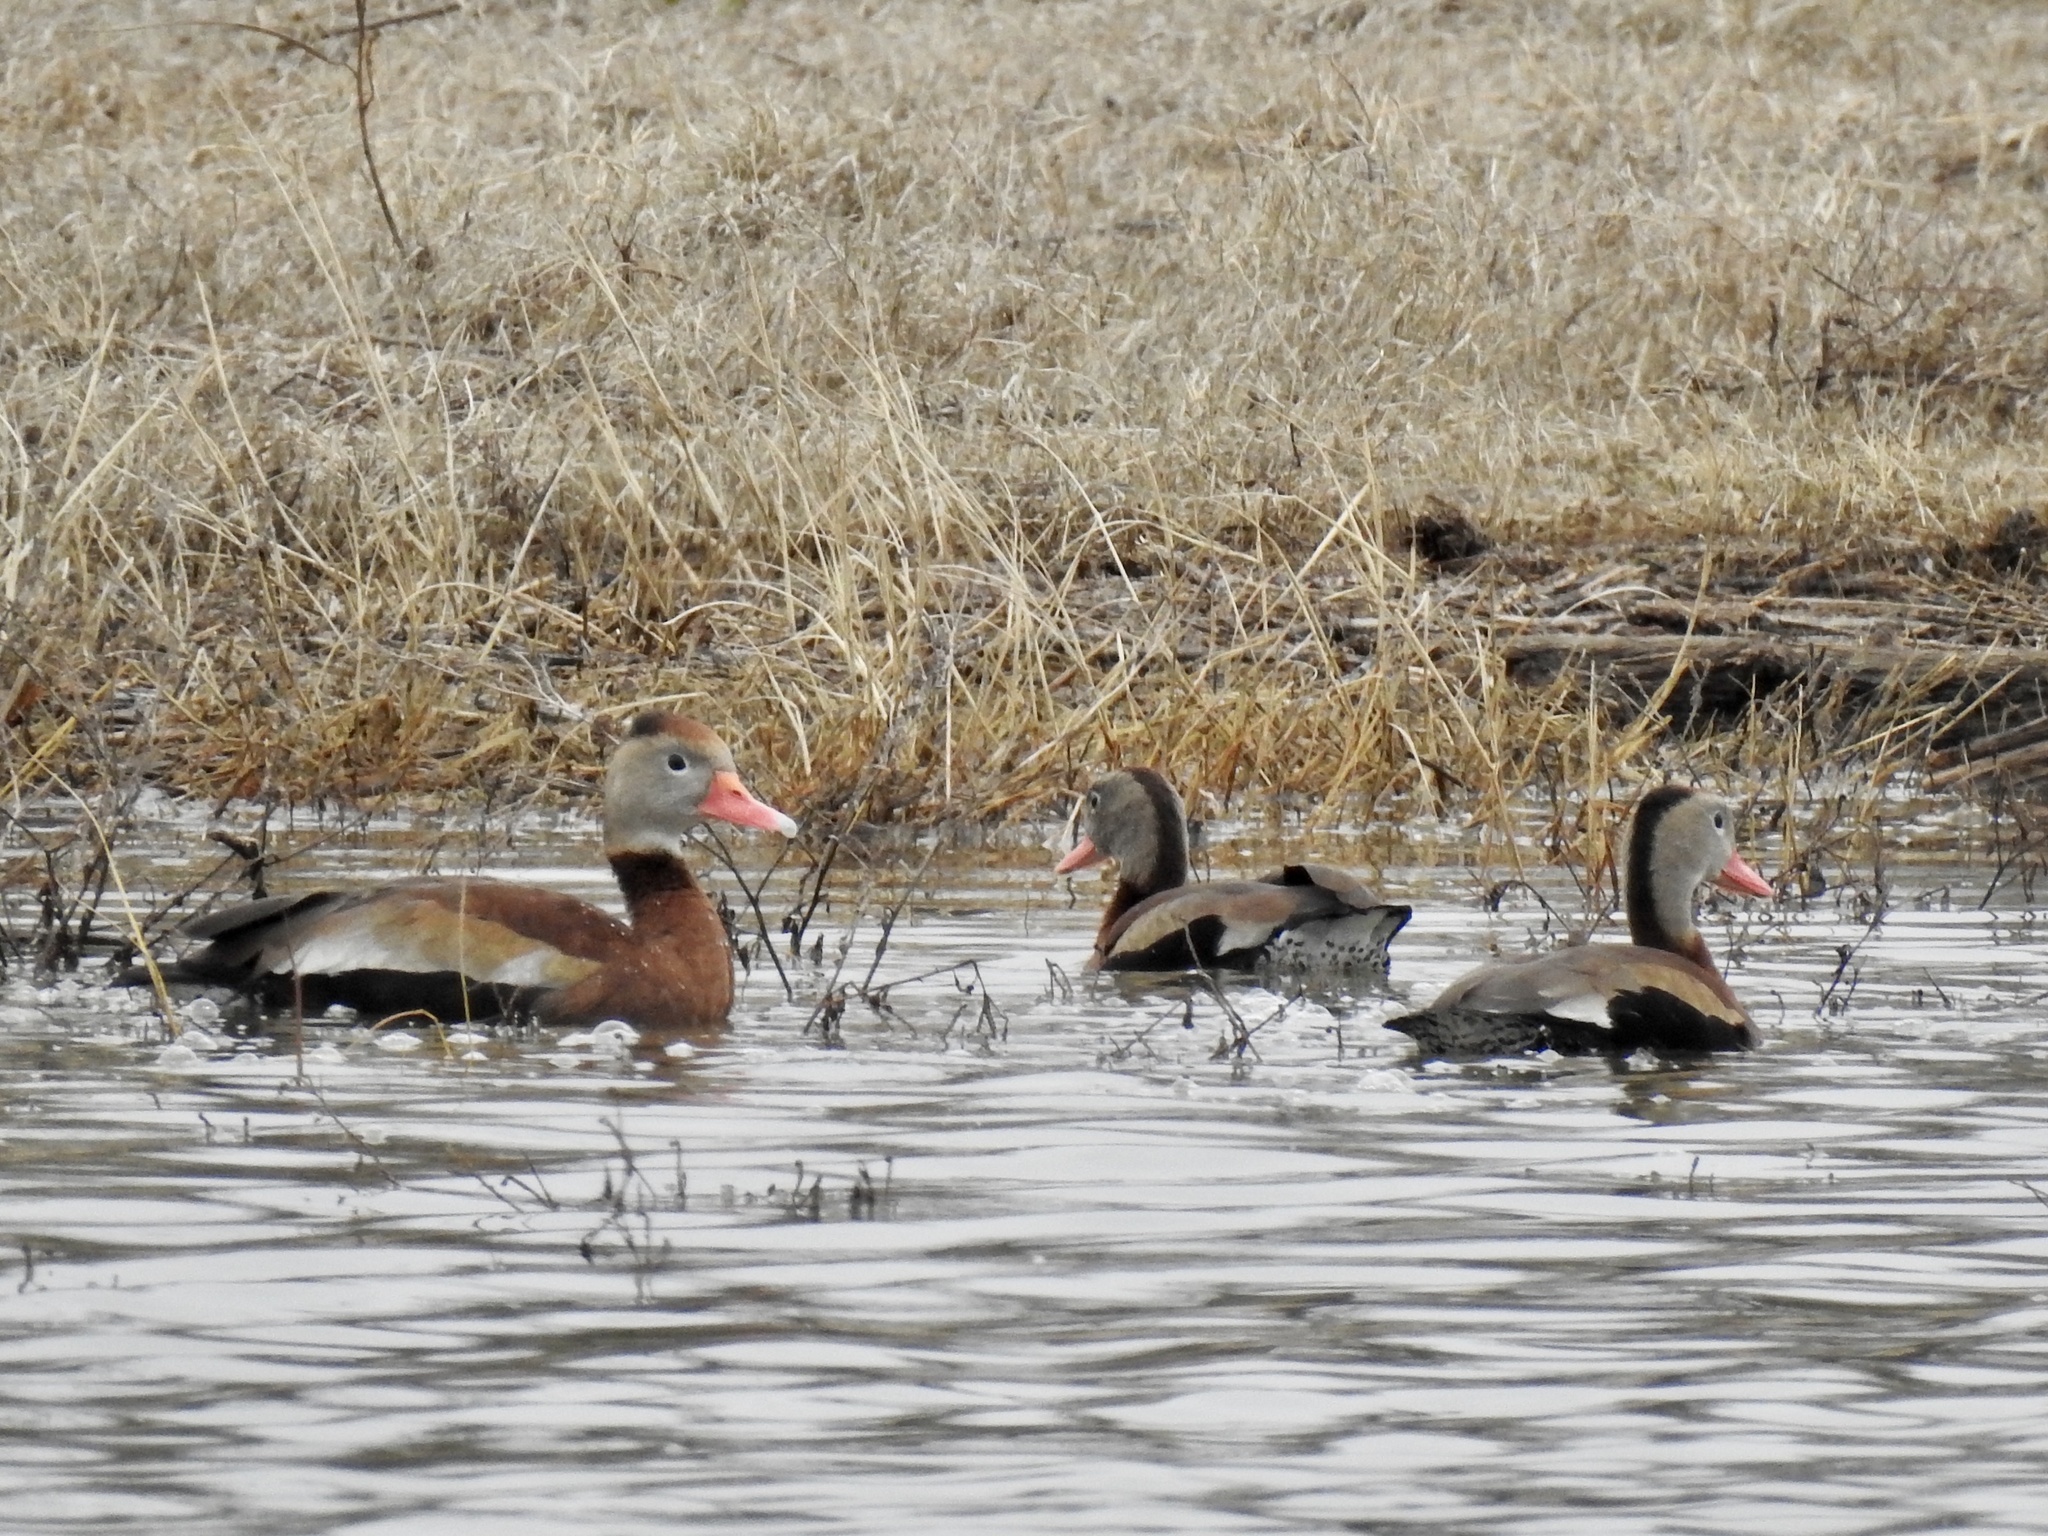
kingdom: Animalia
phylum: Chordata
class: Aves
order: Anseriformes
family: Anatidae
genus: Dendrocygna
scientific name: Dendrocygna autumnalis
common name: Black-bellied whistling duck
